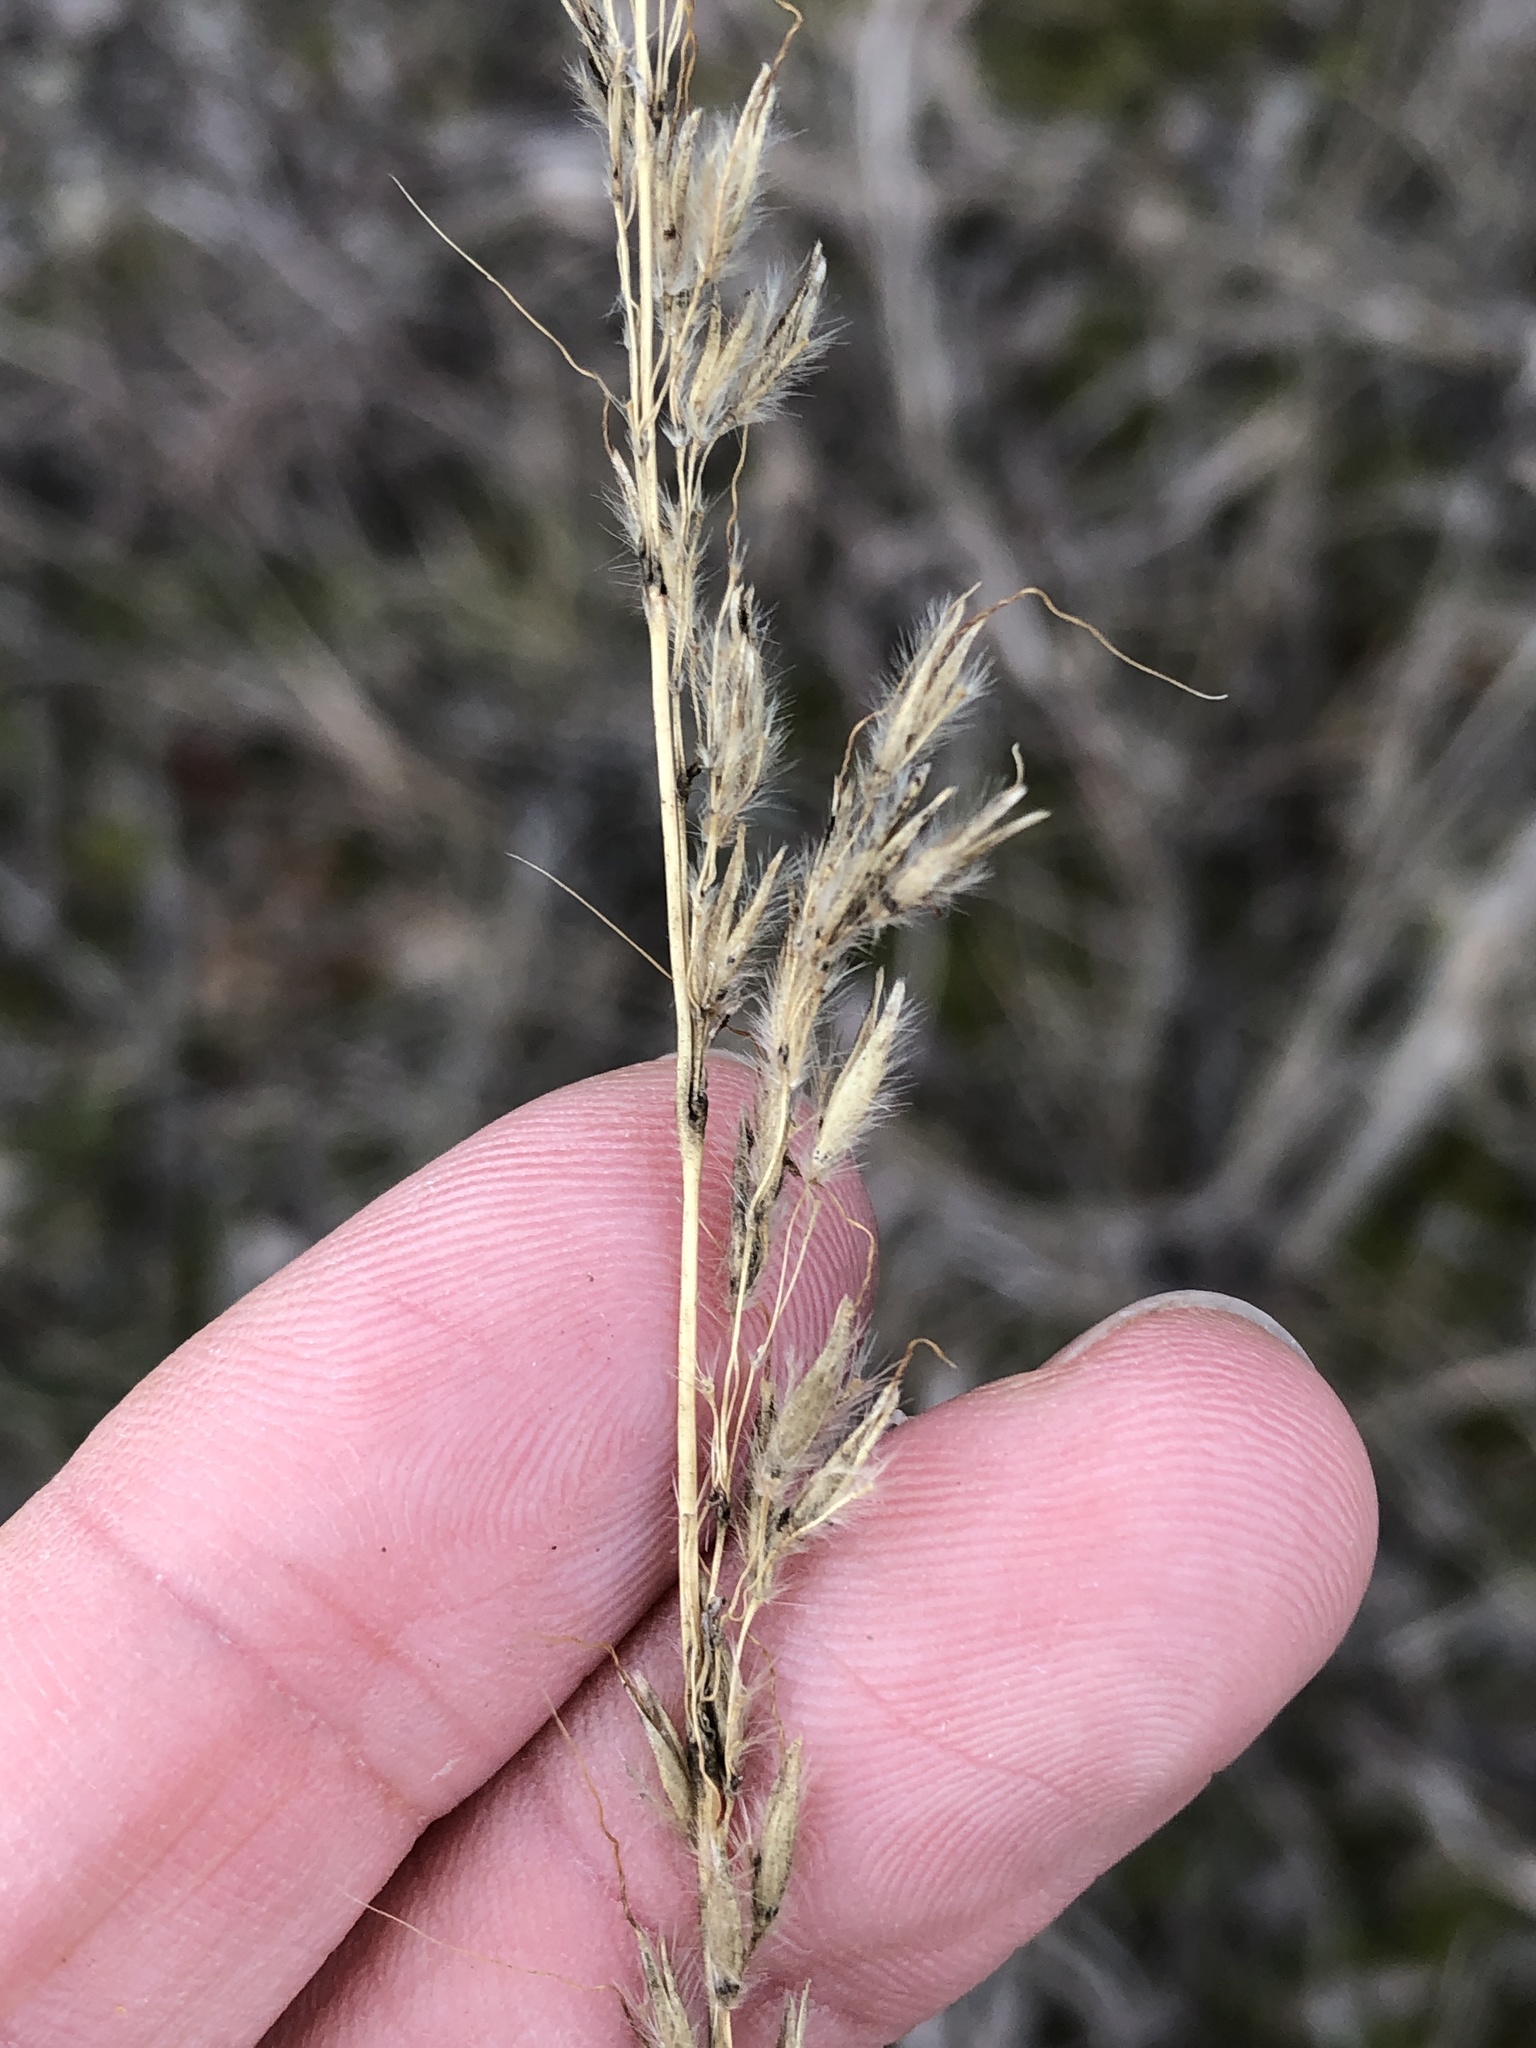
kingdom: Plantae
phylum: Tracheophyta
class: Liliopsida
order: Poales
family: Poaceae
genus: Sorghastrum
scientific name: Sorghastrum nutans
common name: Indian grass
